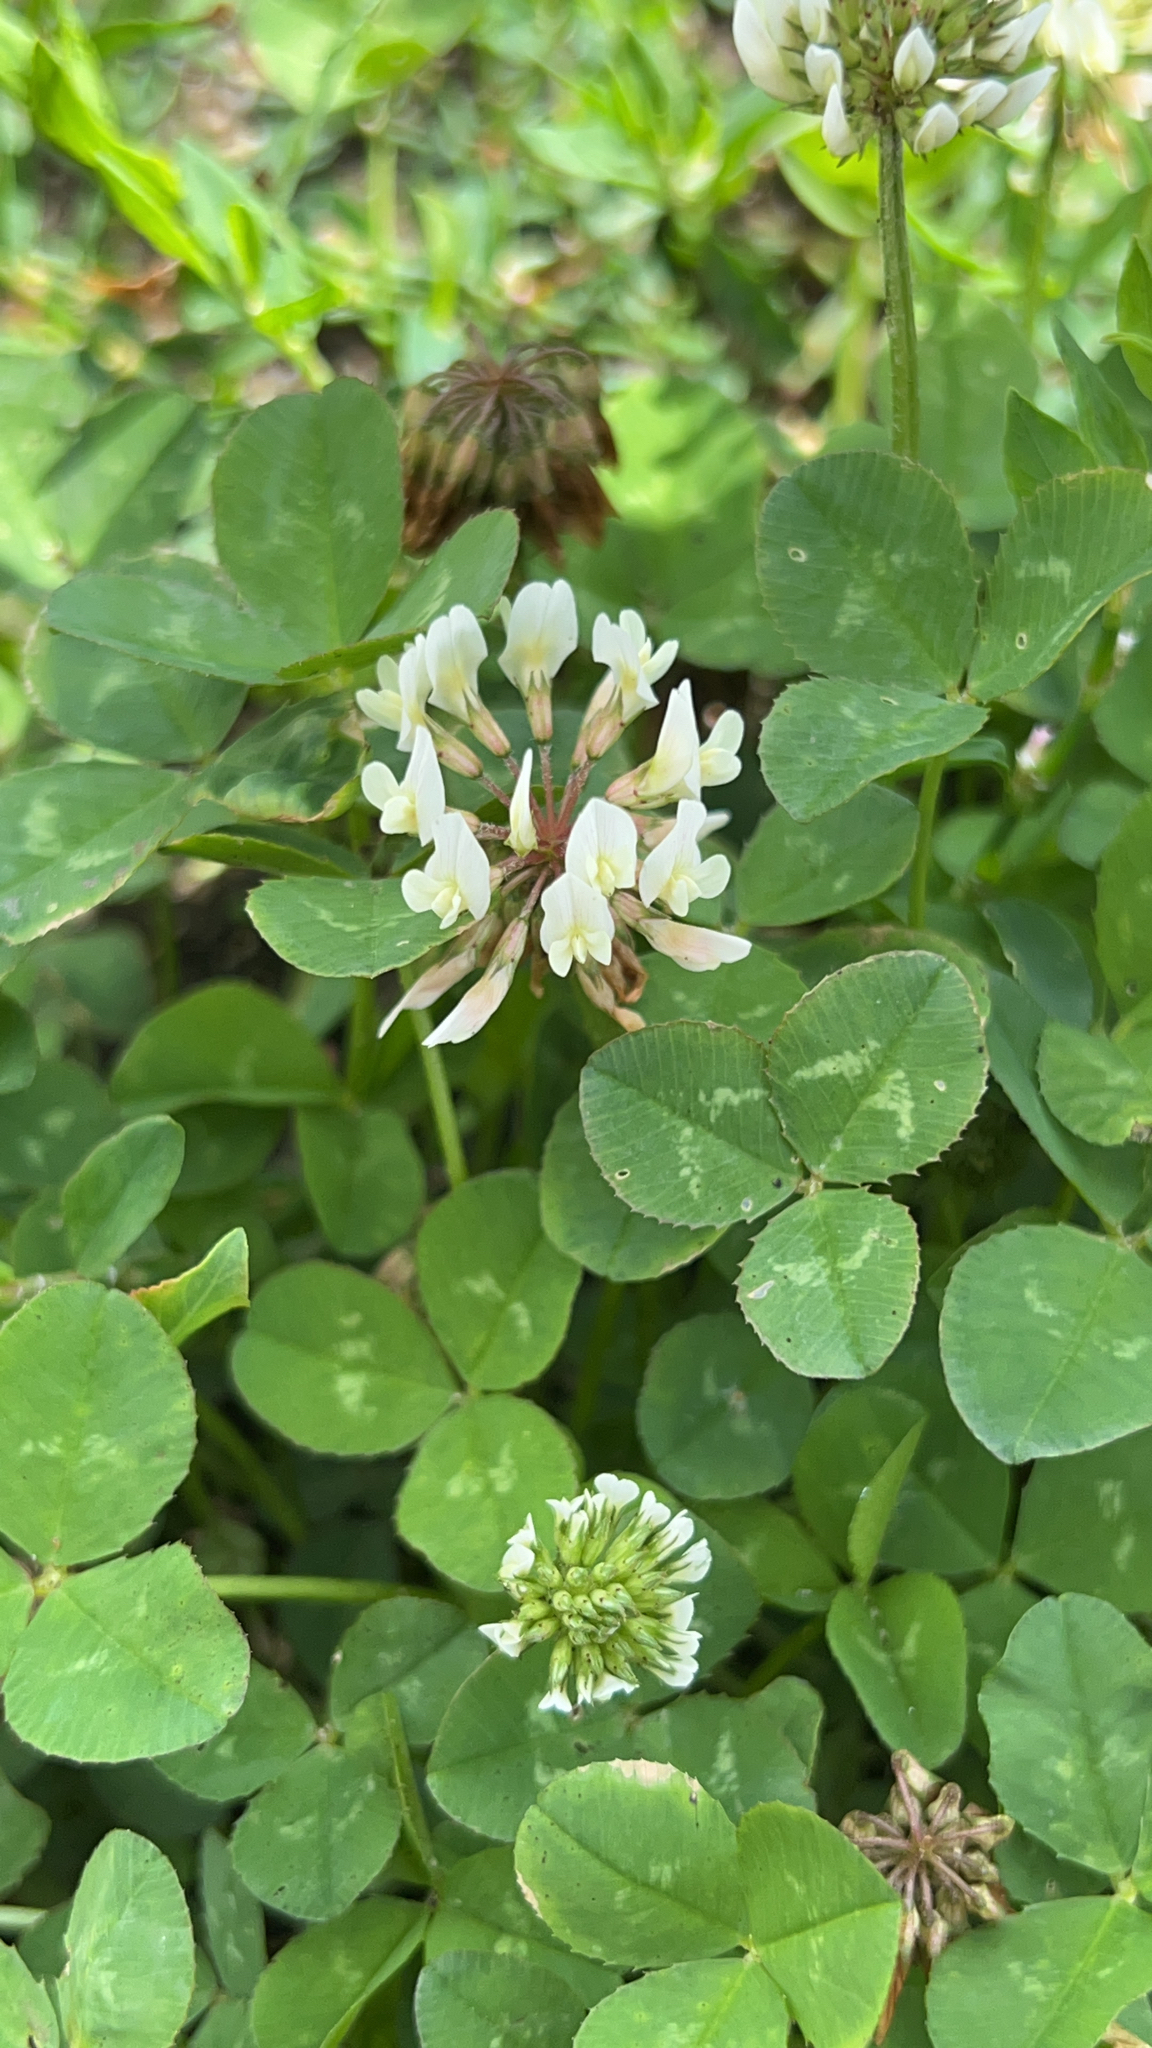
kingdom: Plantae
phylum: Tracheophyta
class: Magnoliopsida
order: Fabales
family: Fabaceae
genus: Trifolium
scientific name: Trifolium repens
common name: White clover
